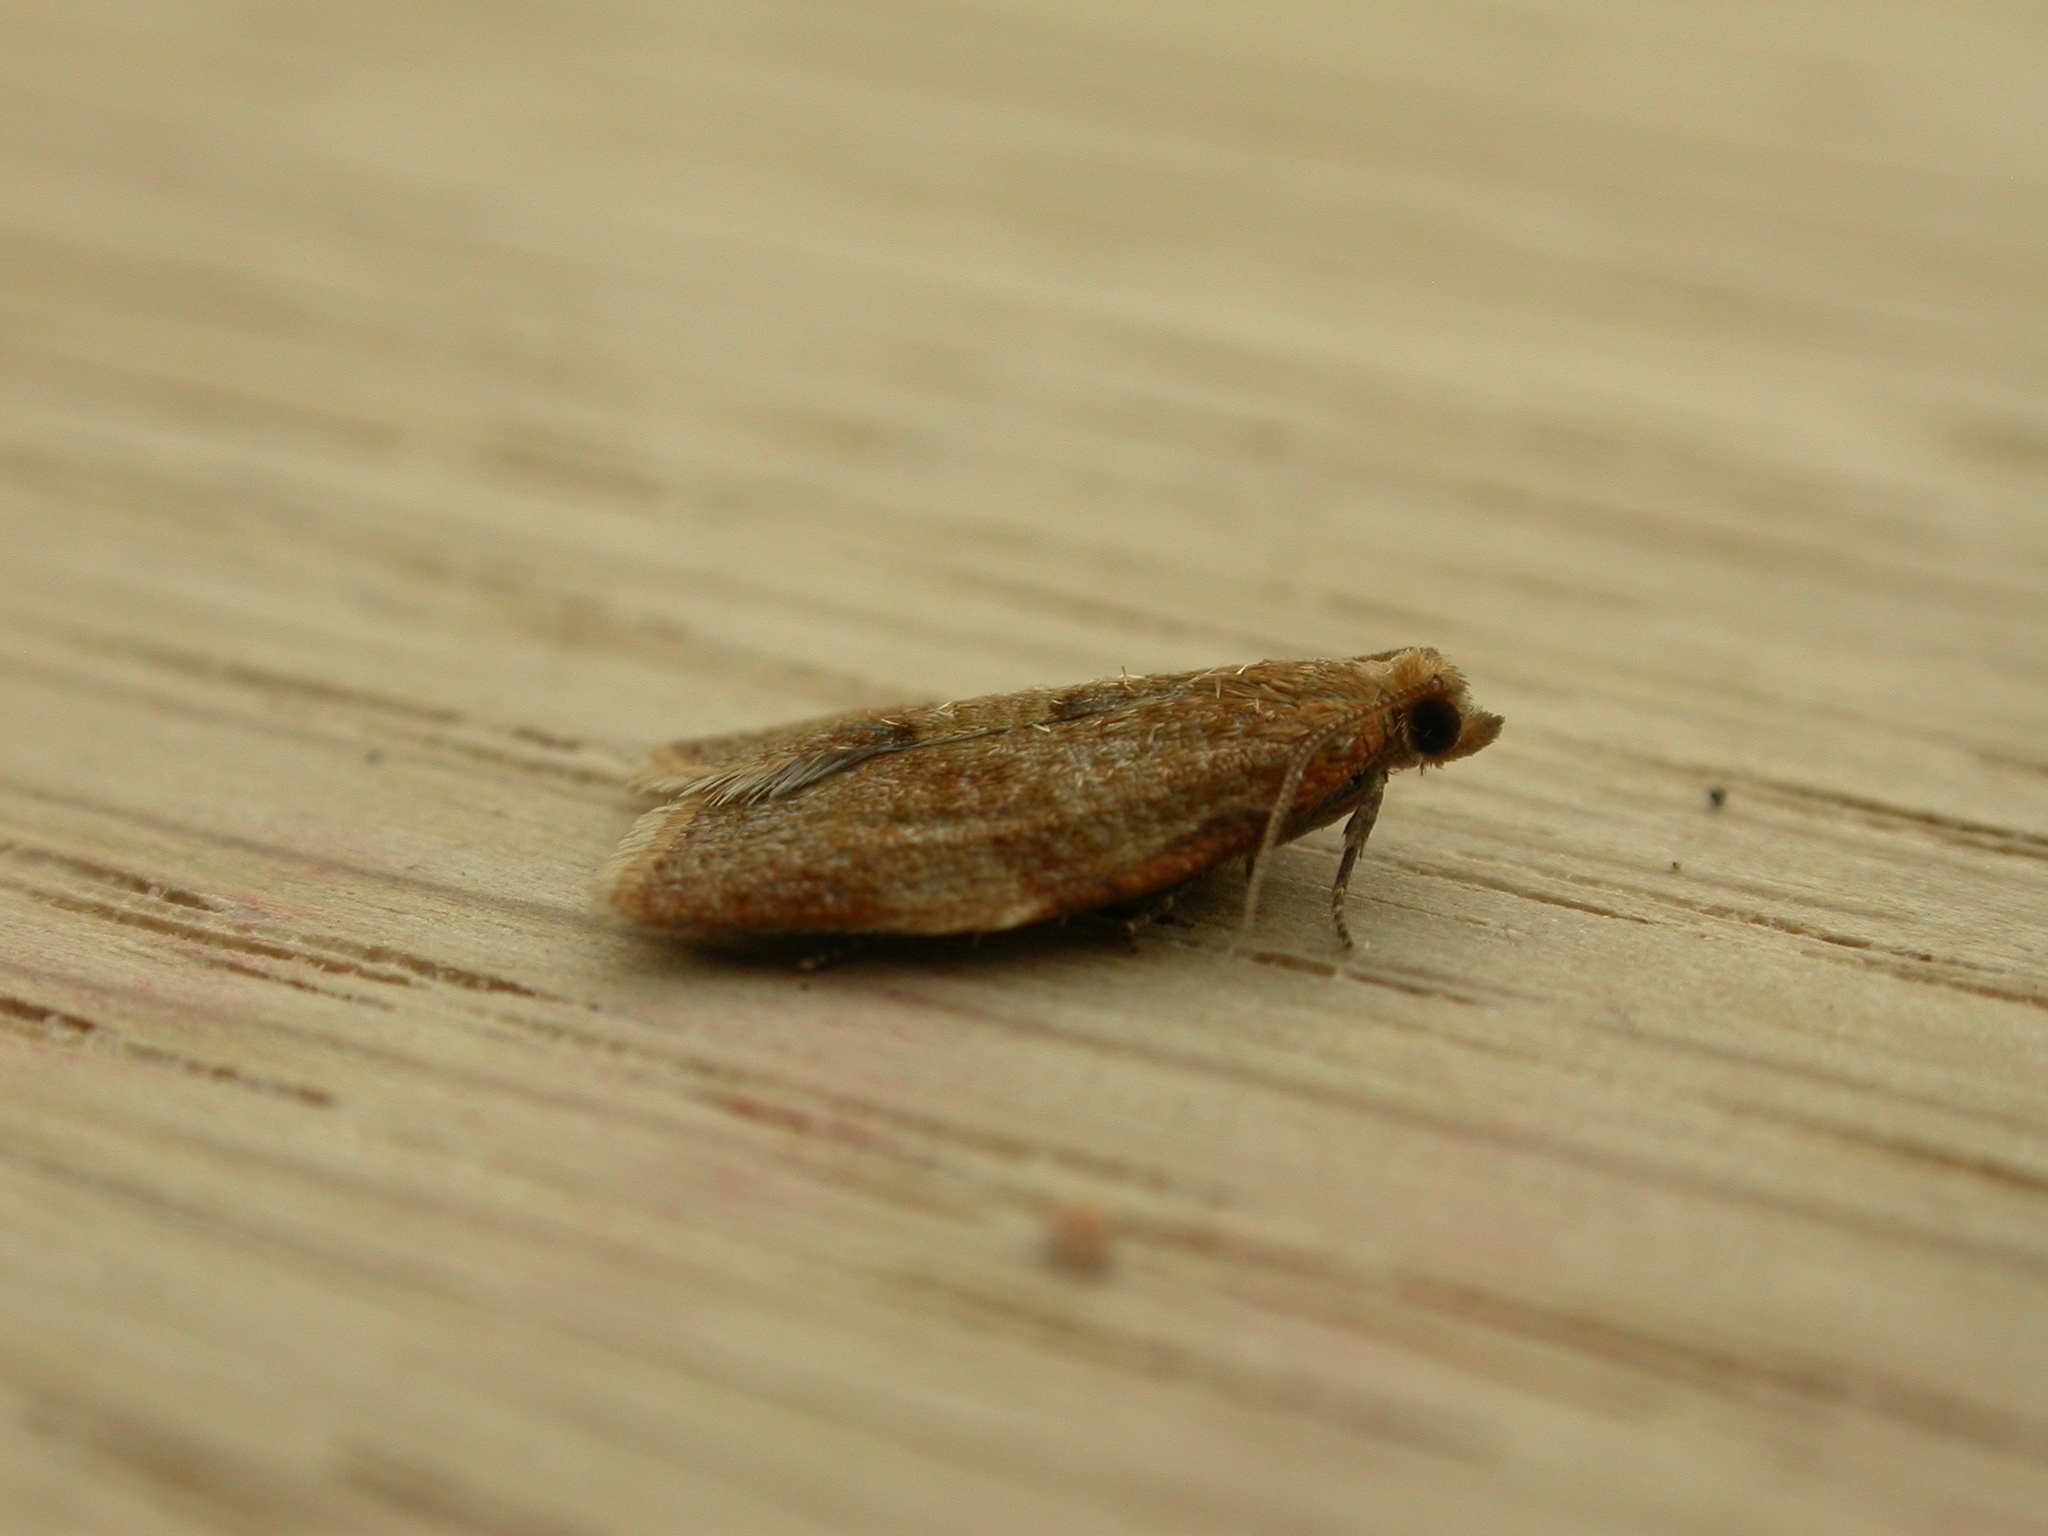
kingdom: Animalia
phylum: Arthropoda
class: Insecta
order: Lepidoptera
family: Tortricidae
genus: Clepsis
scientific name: Clepsis consimilana
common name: Privet tortrix
